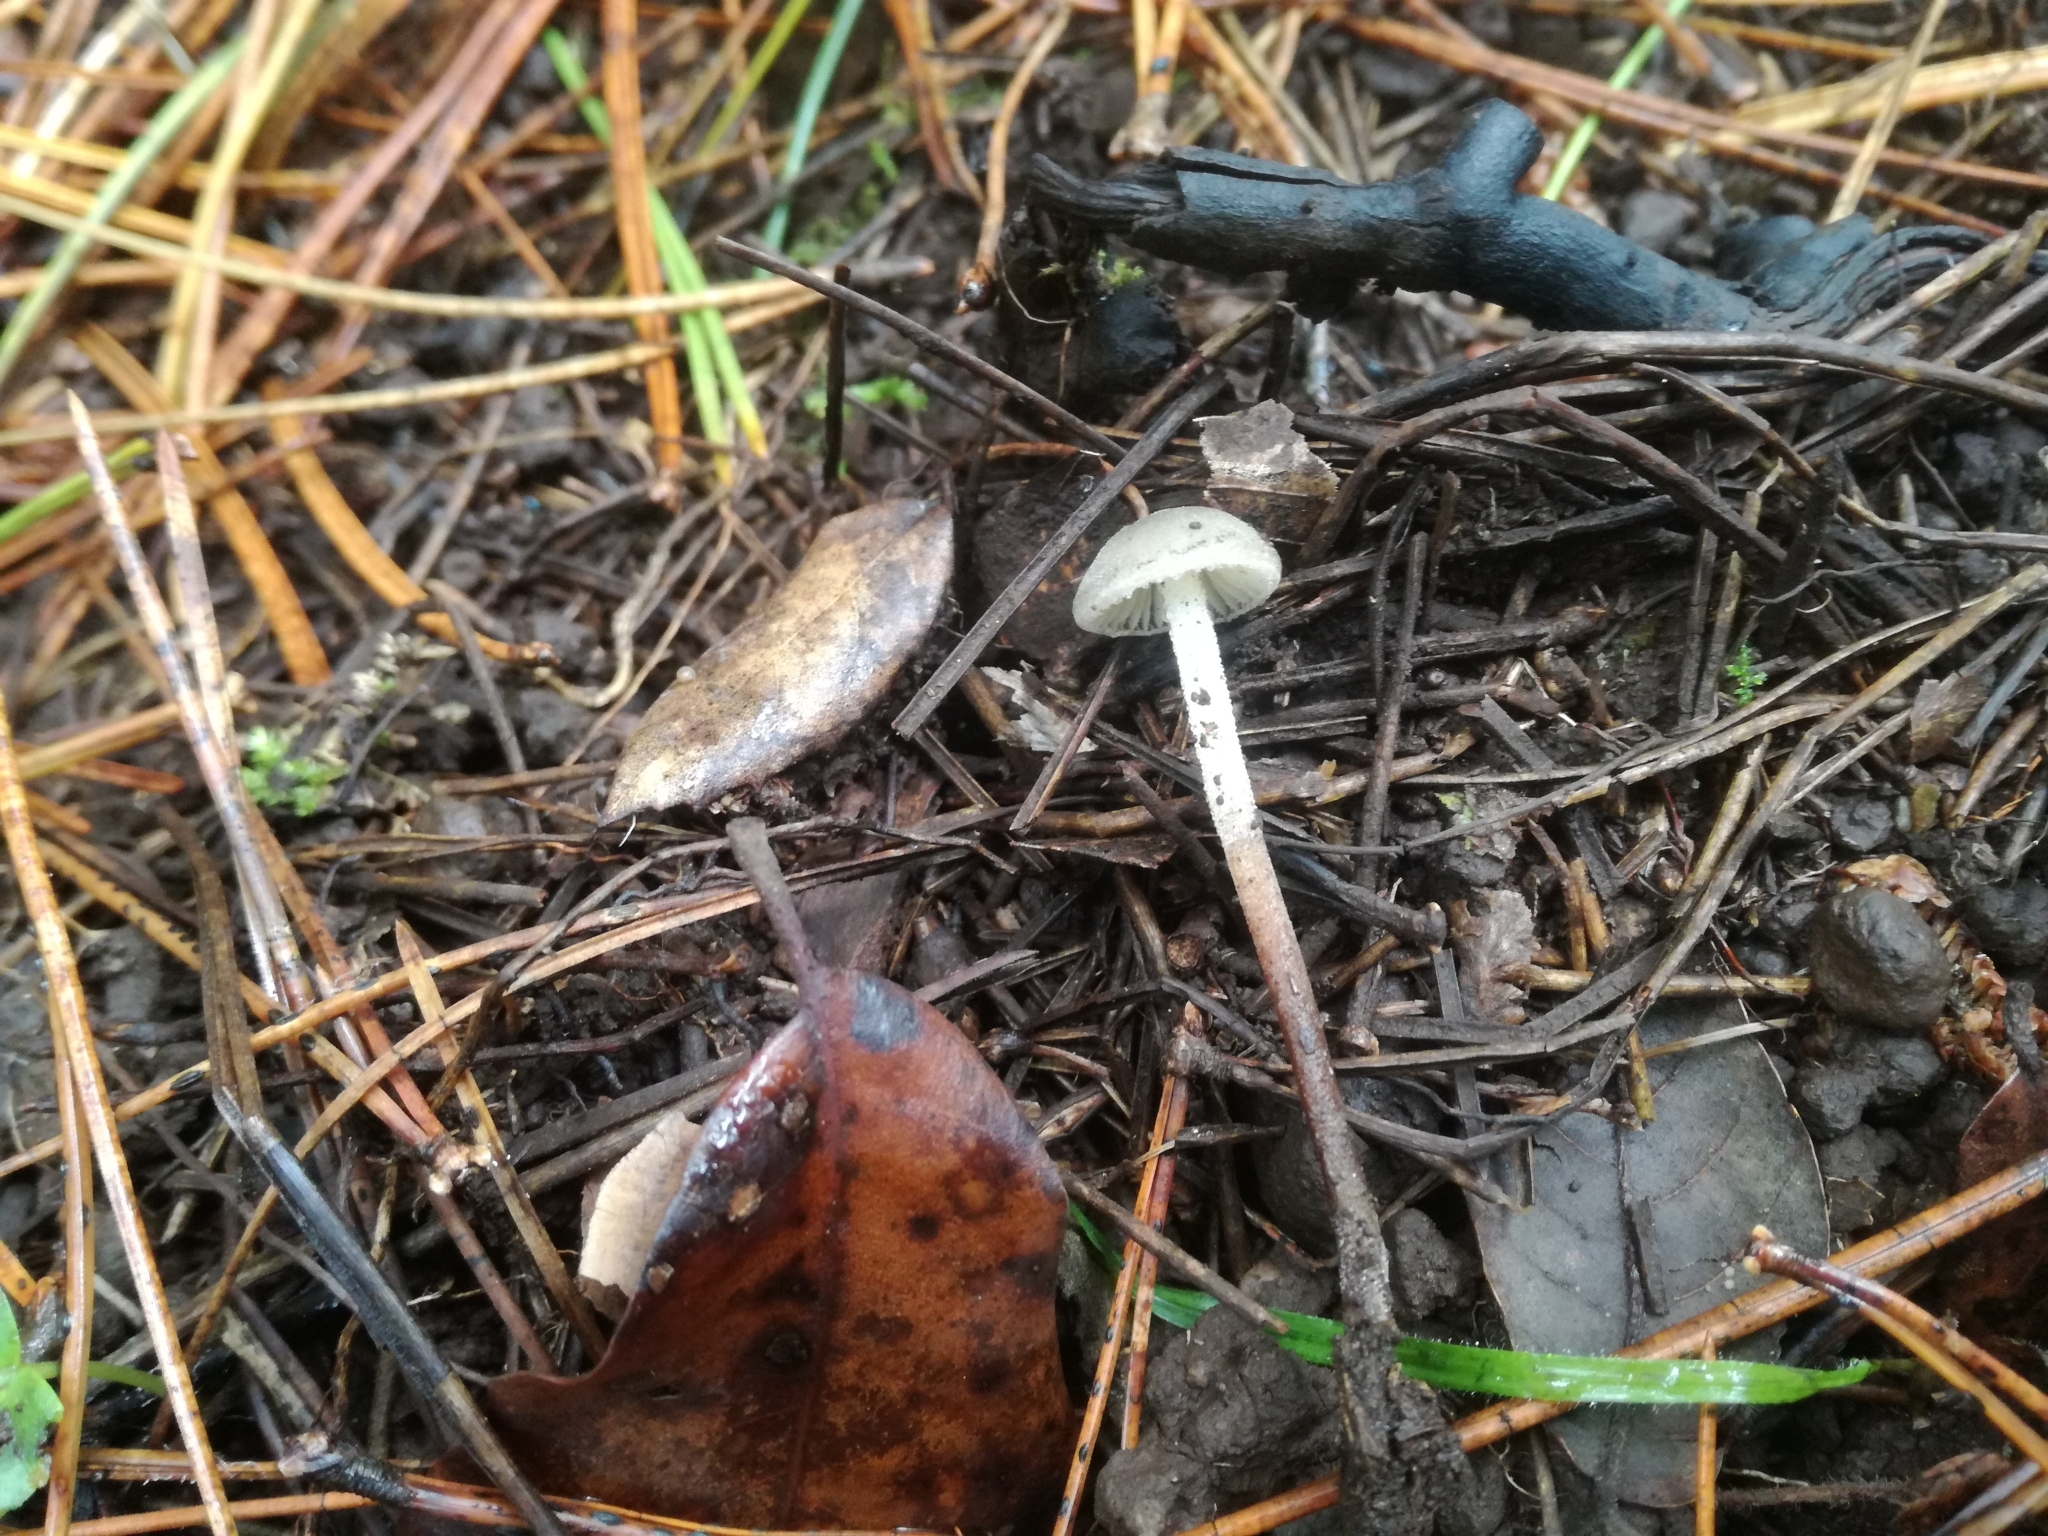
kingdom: Fungi
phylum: Basidiomycota
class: Agaricomycetes
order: Agaricales
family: Physalacriaceae
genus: Rhizomarasmius
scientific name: Rhizomarasmius undatus
